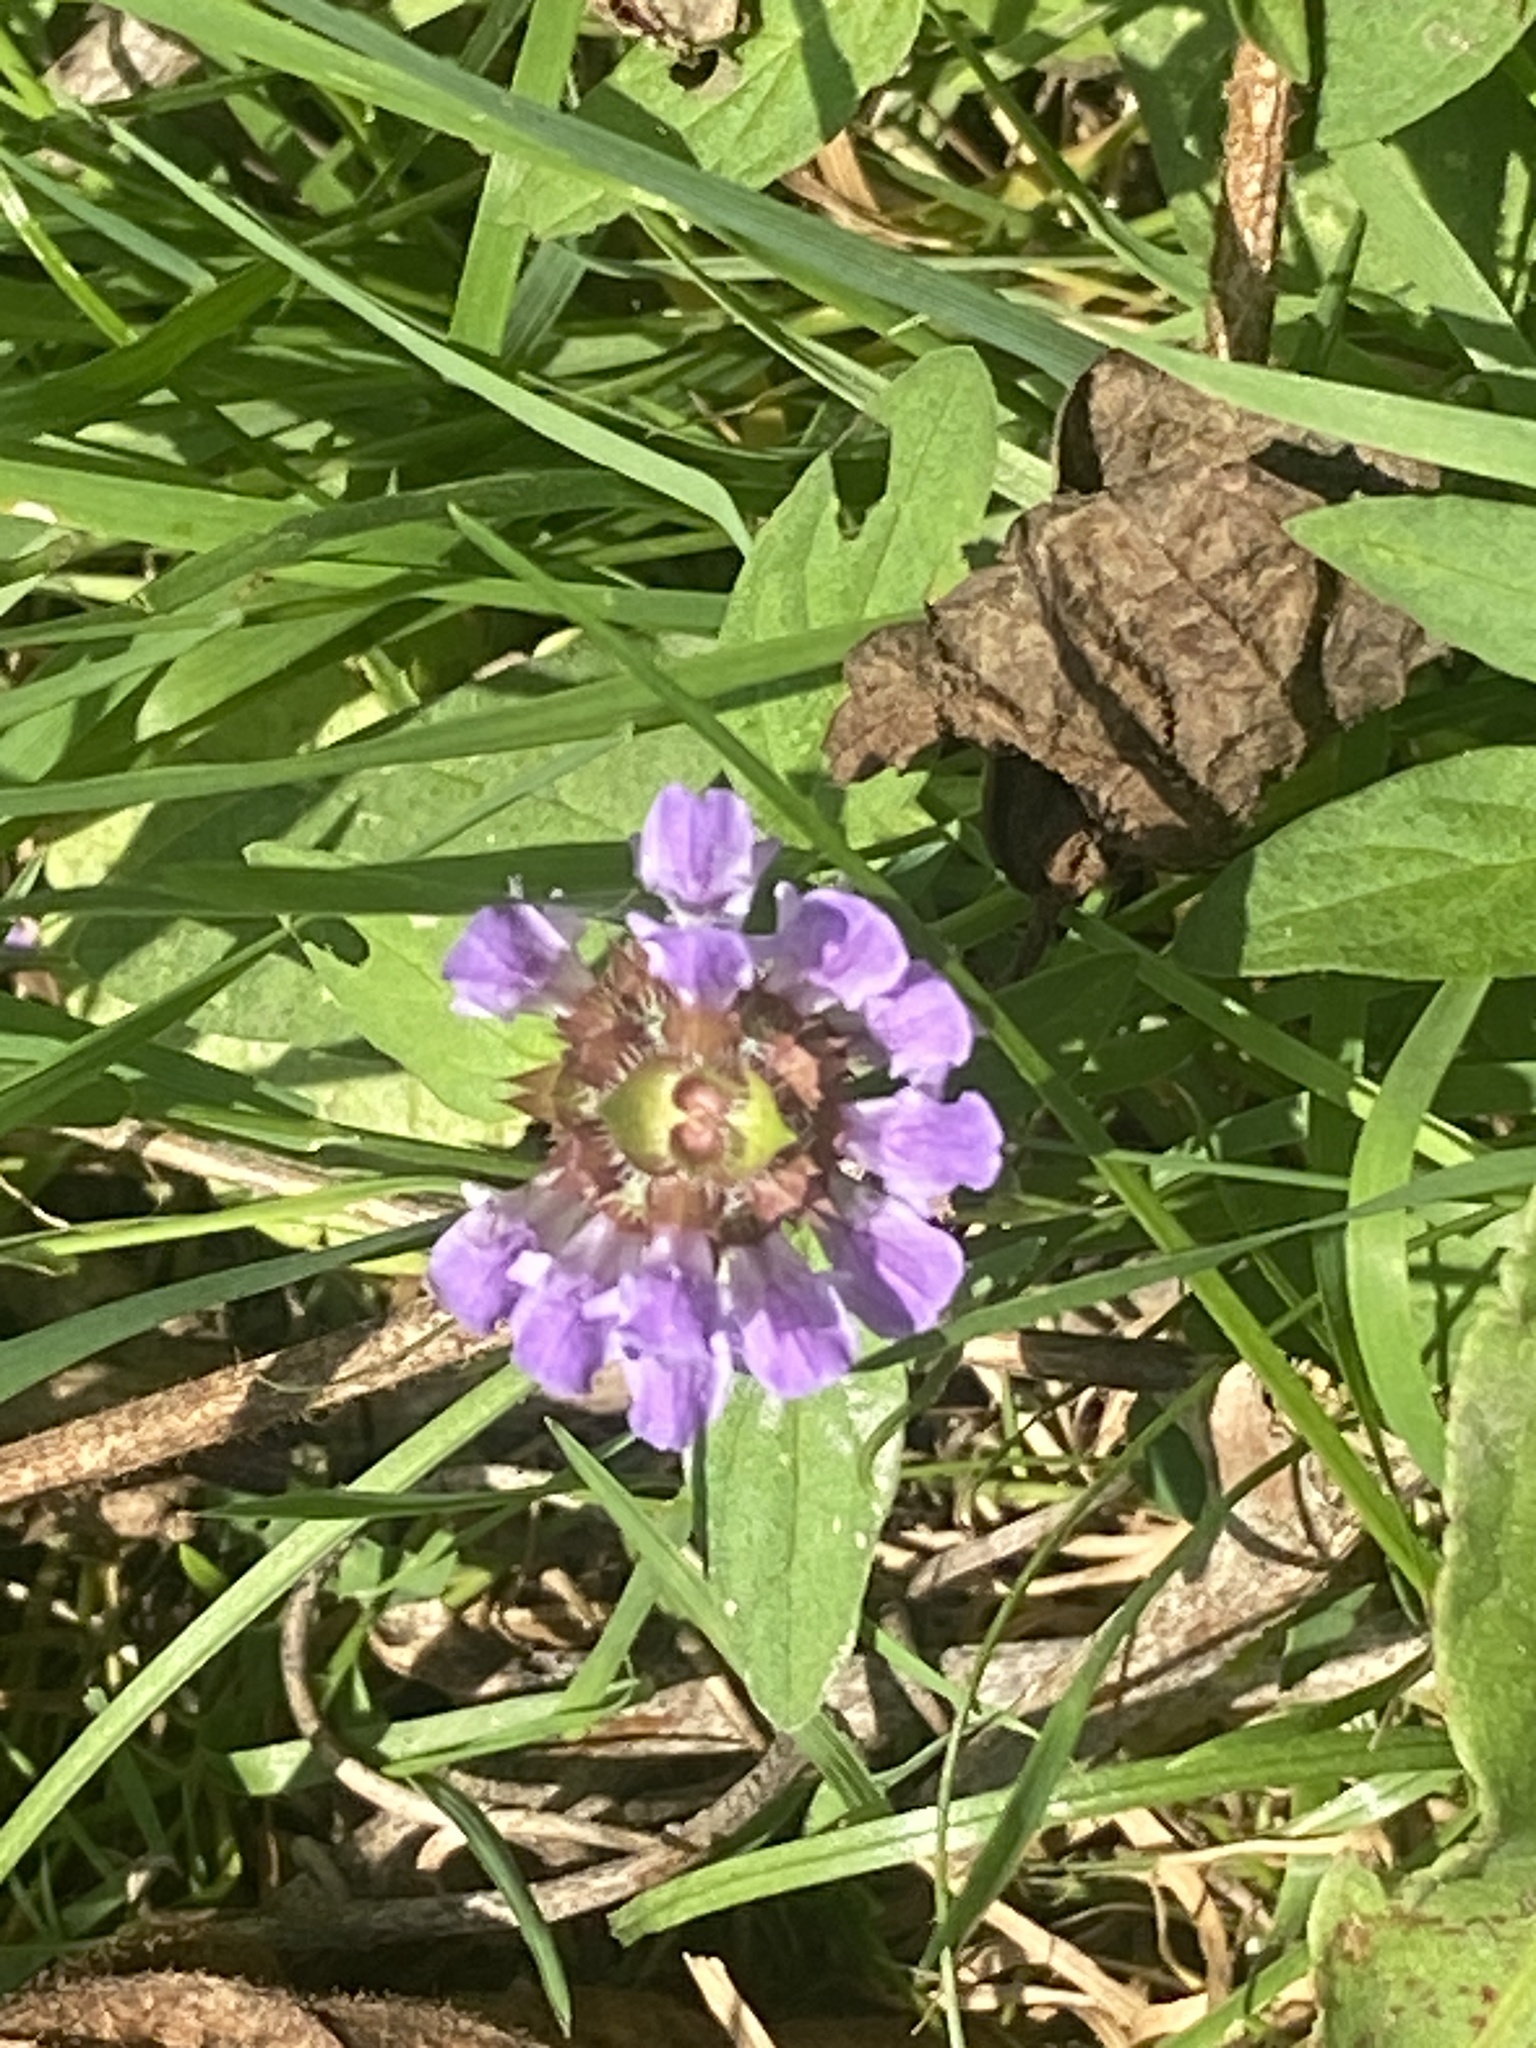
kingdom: Plantae
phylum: Tracheophyta
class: Magnoliopsida
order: Lamiales
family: Lamiaceae
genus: Prunella
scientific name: Prunella vulgaris
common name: Heal-all
